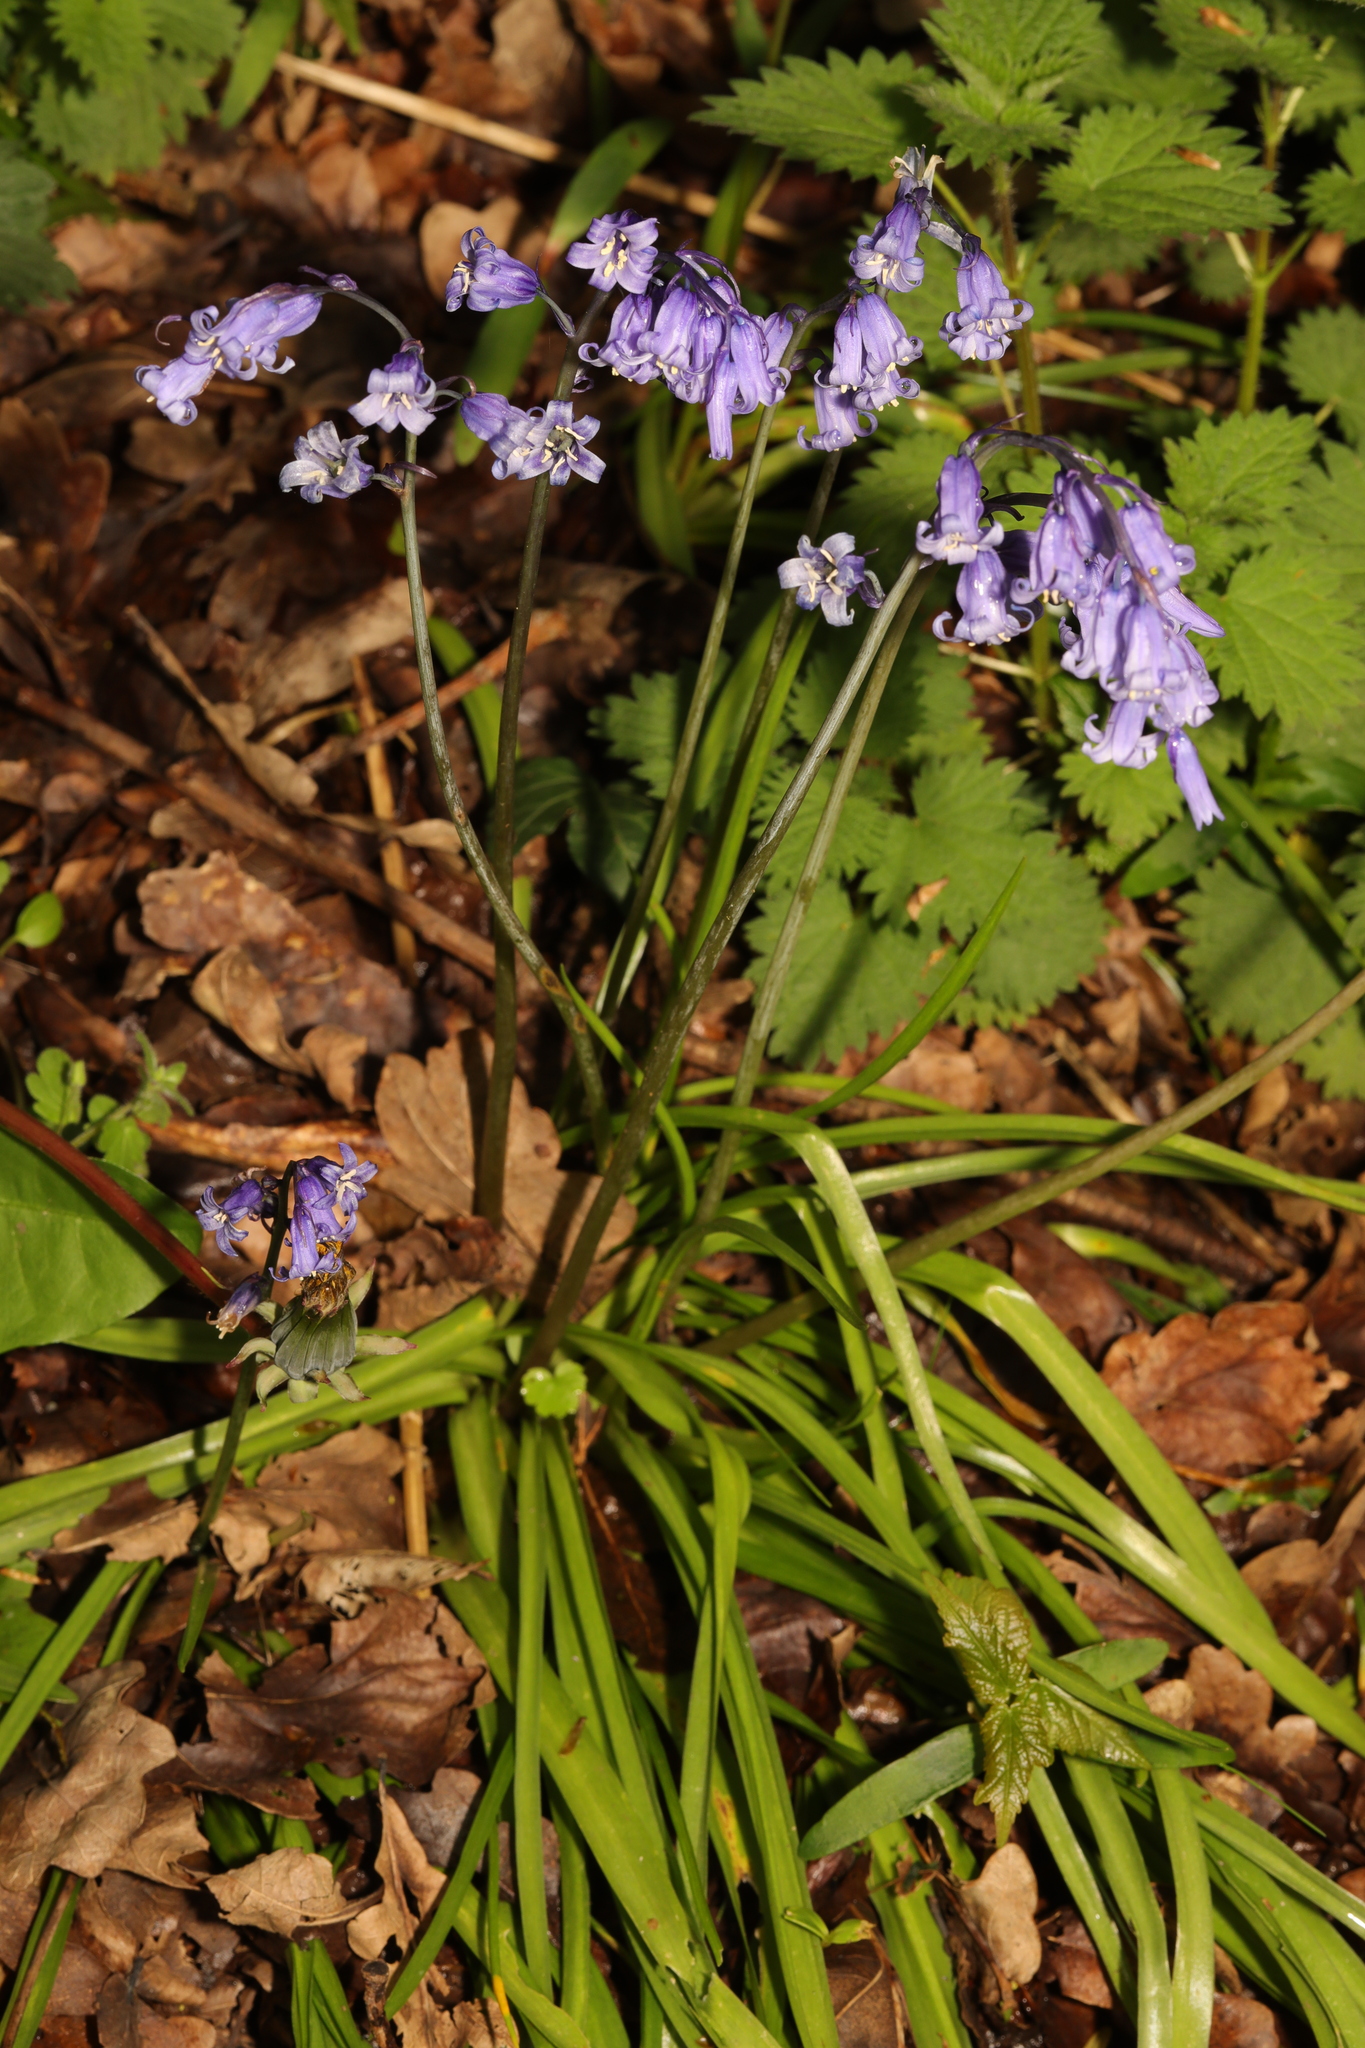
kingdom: Plantae
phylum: Tracheophyta
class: Liliopsida
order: Asparagales
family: Asparagaceae
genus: Hyacinthoides
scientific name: Hyacinthoides non-scripta
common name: Bluebell
